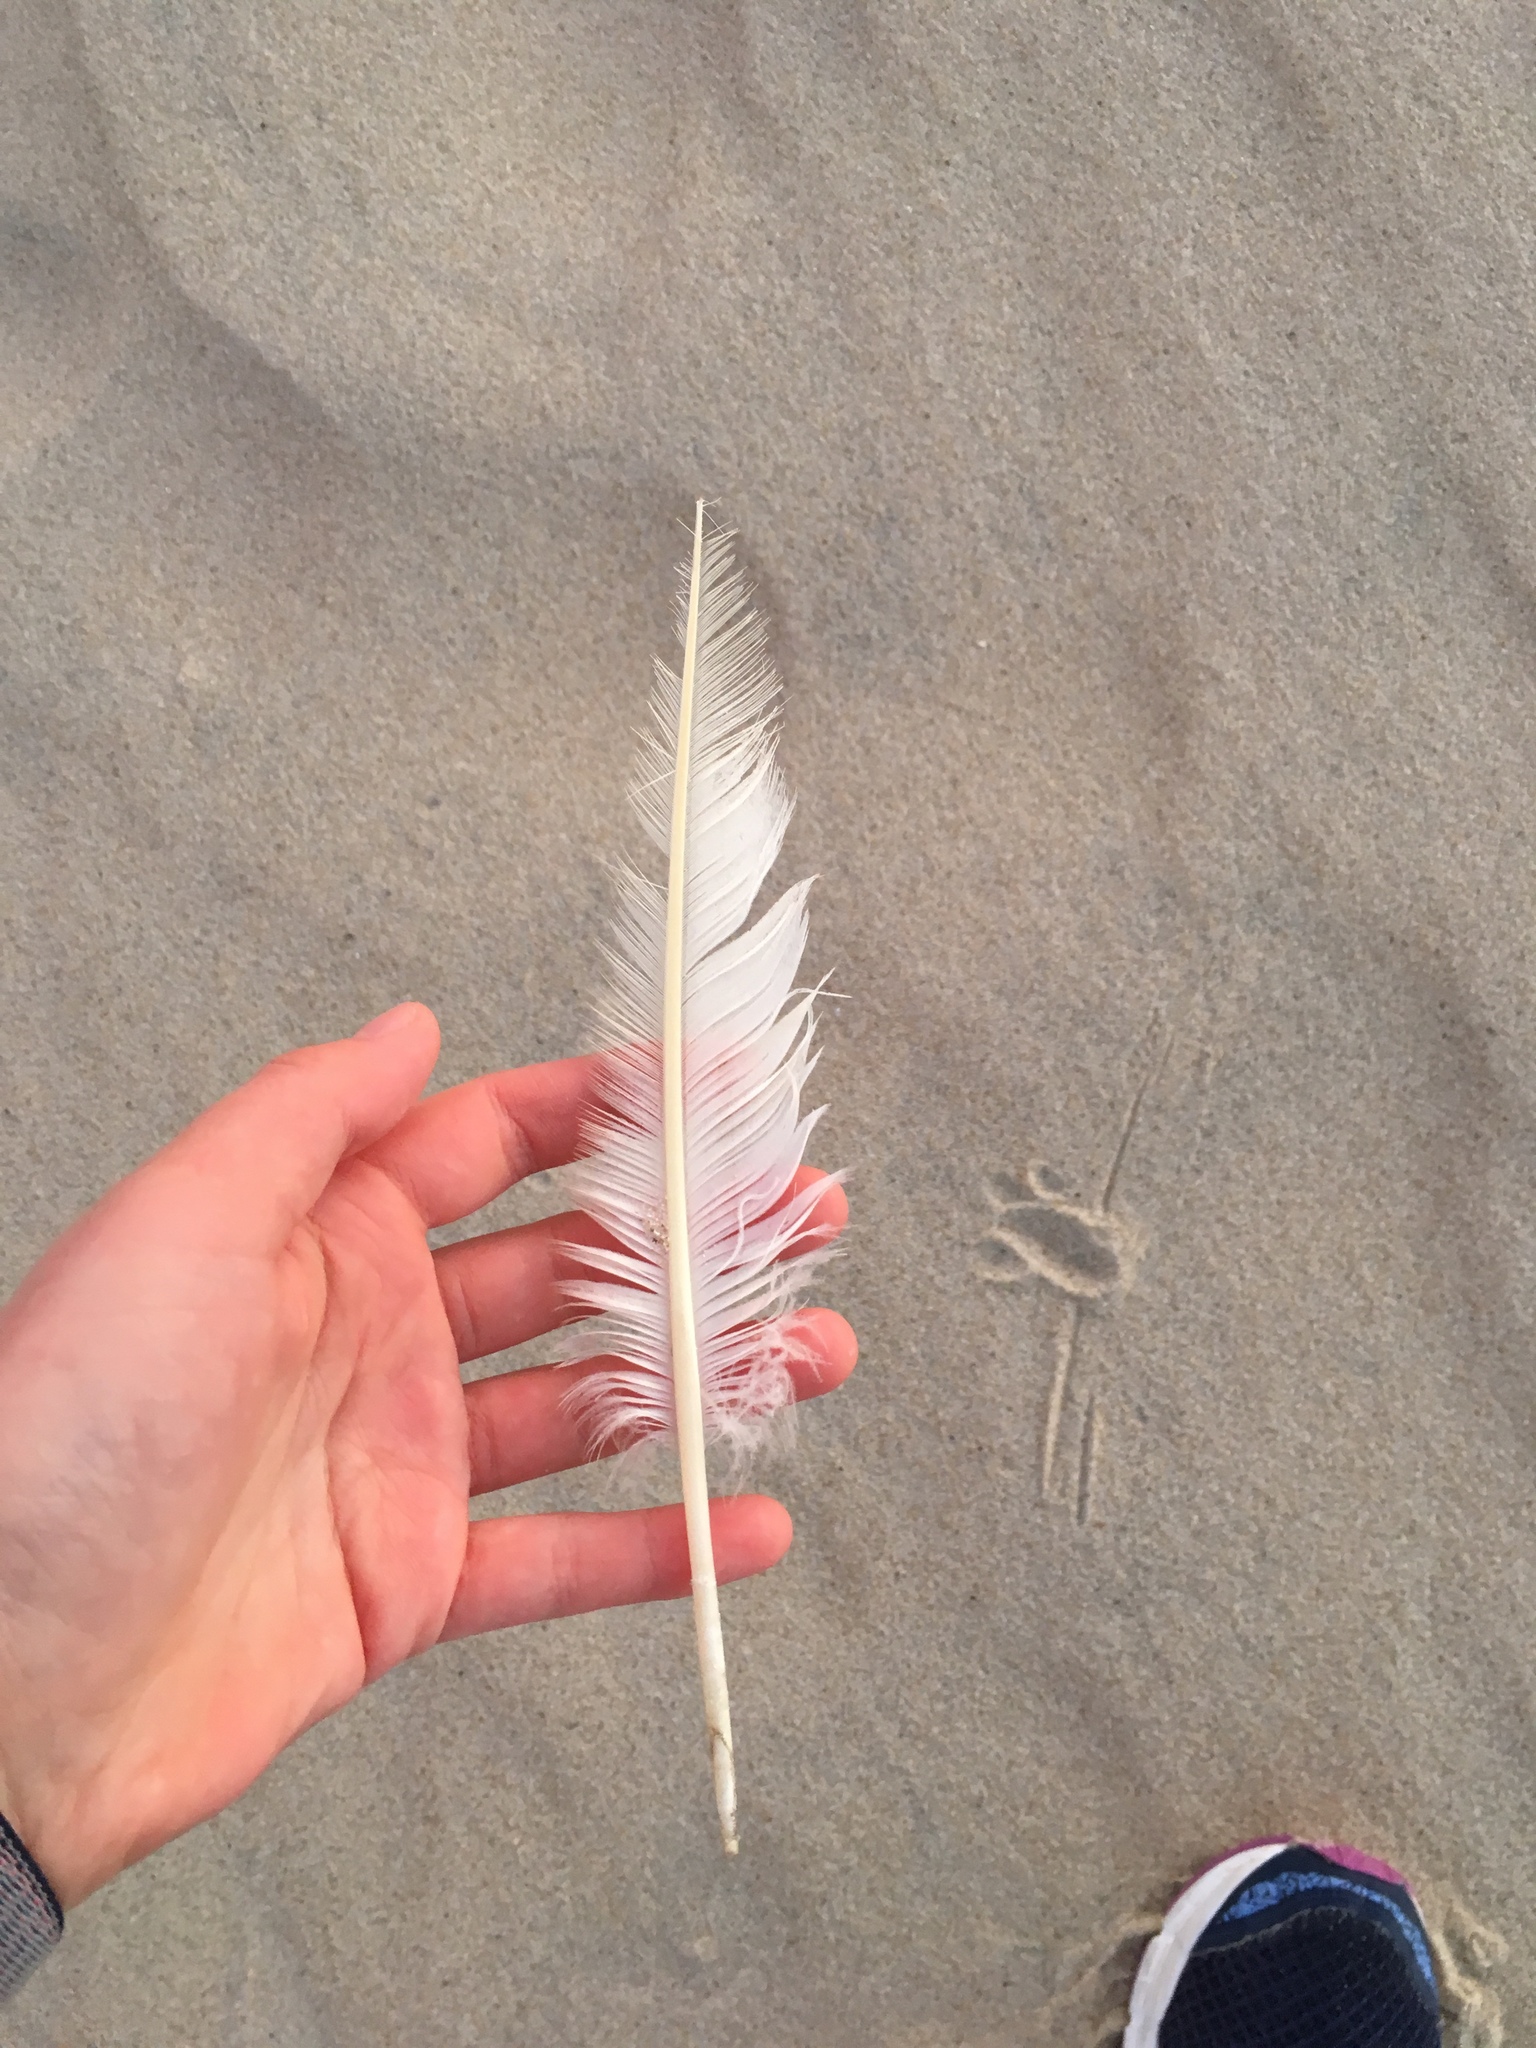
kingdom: Animalia
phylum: Chordata
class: Aves
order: Suliformes
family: Sulidae
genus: Morus
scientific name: Morus bassanus
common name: Northern gannet
